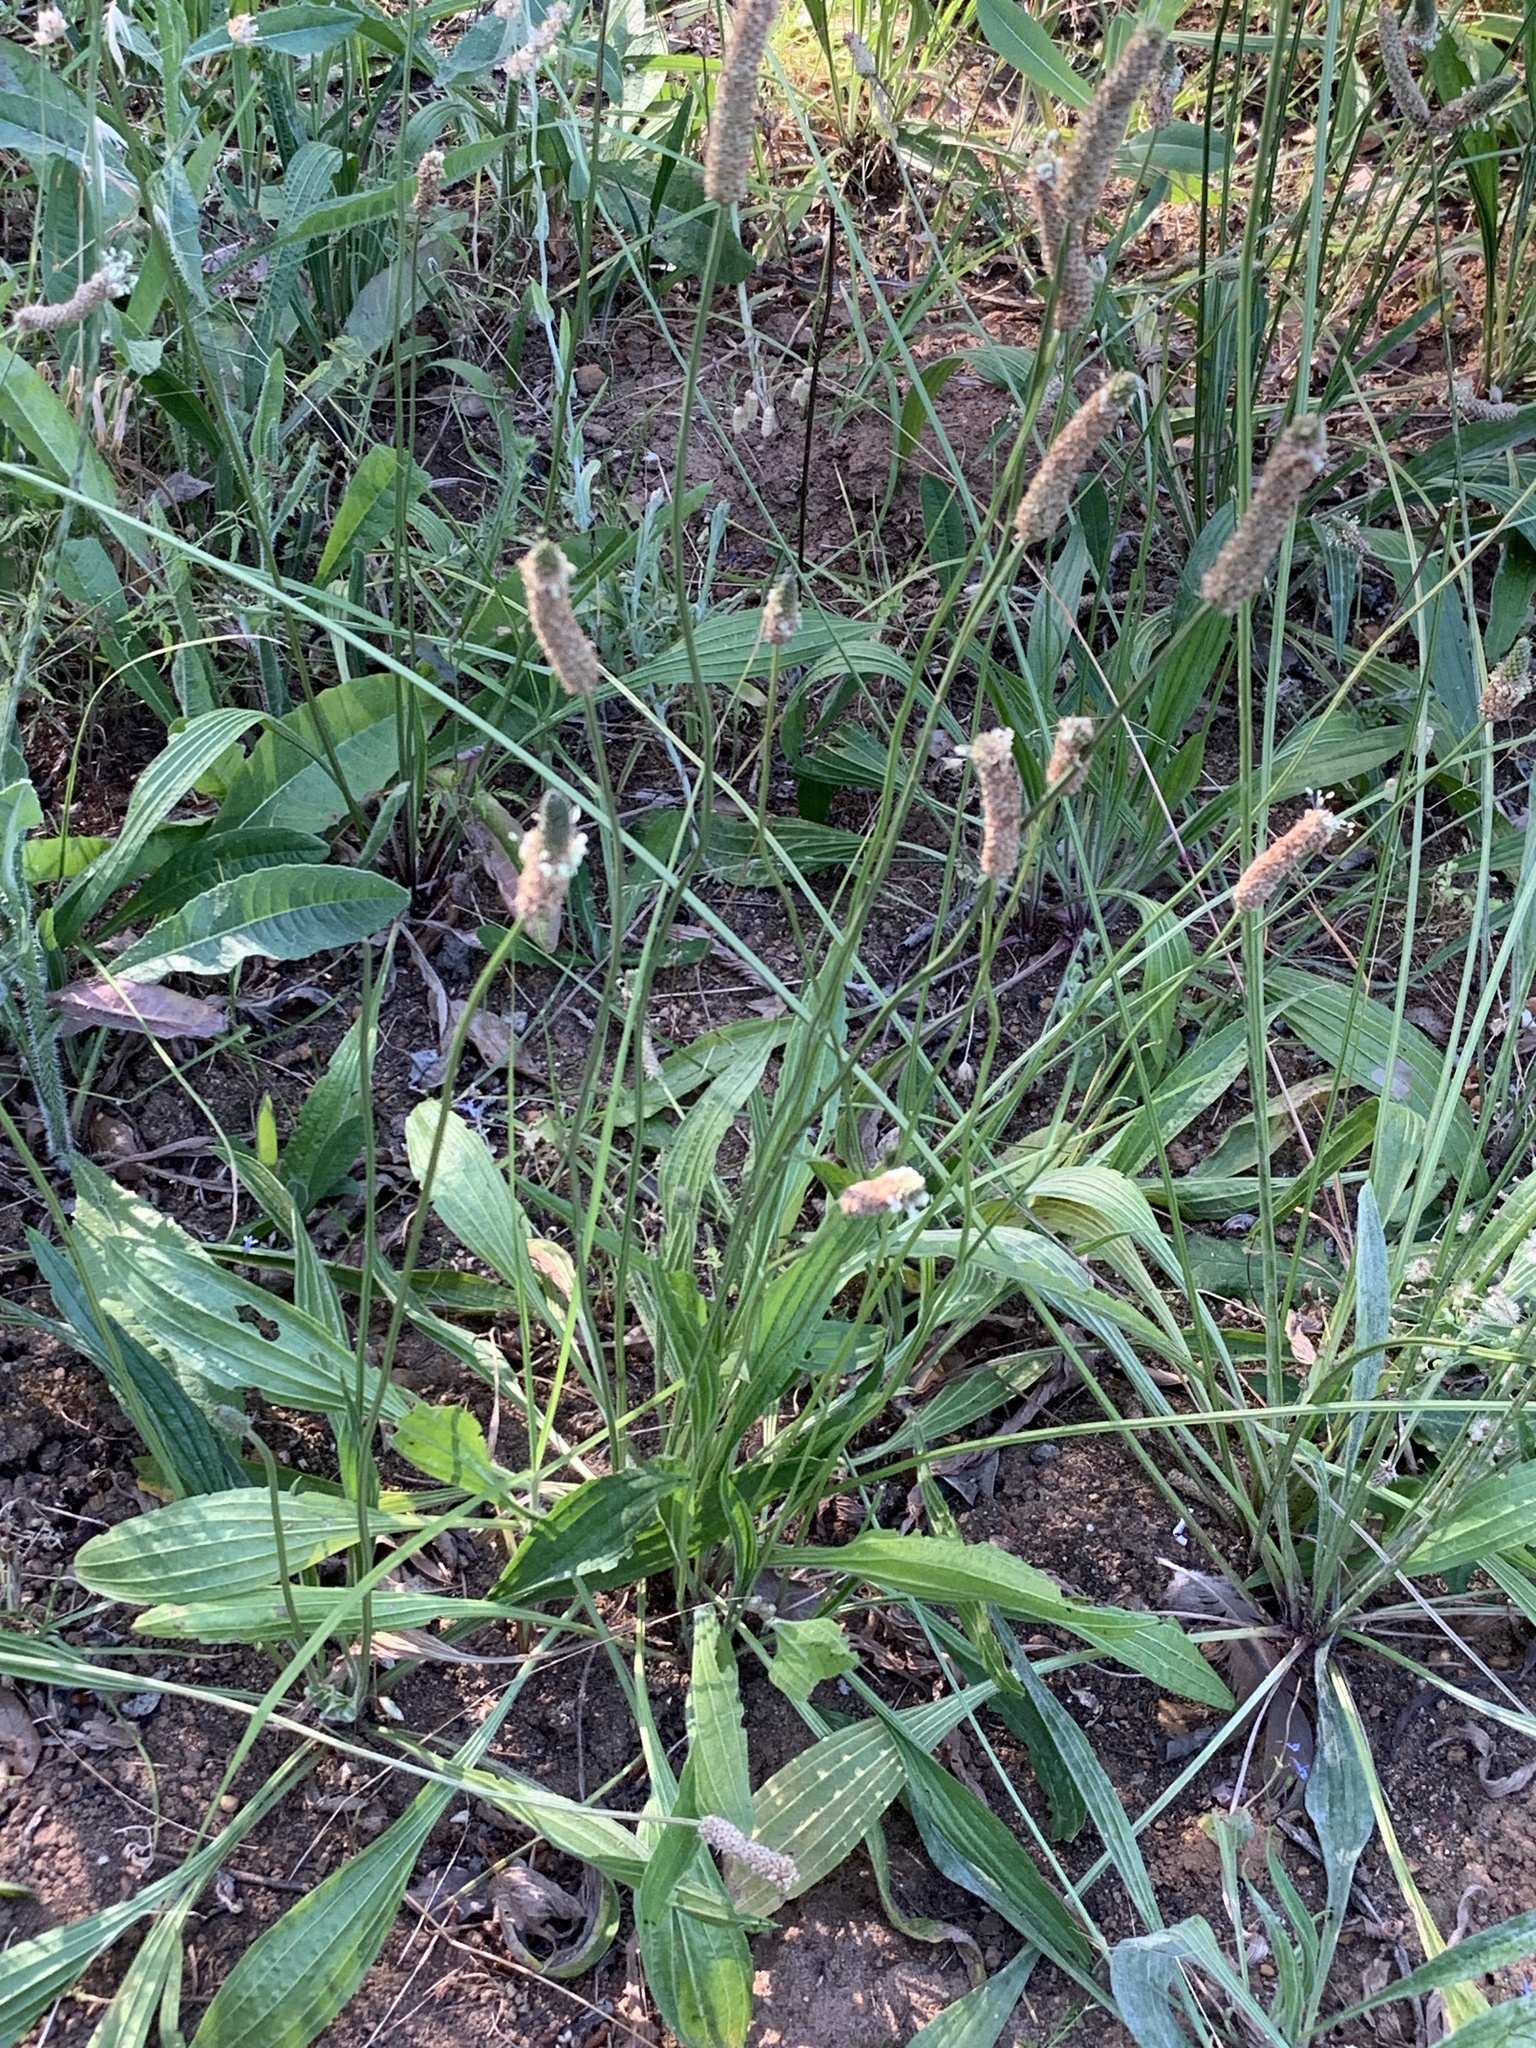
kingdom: Plantae
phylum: Tracheophyta
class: Magnoliopsida
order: Lamiales
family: Plantaginaceae
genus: Plantago
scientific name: Plantago lanceolata
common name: Ribwort plantain
